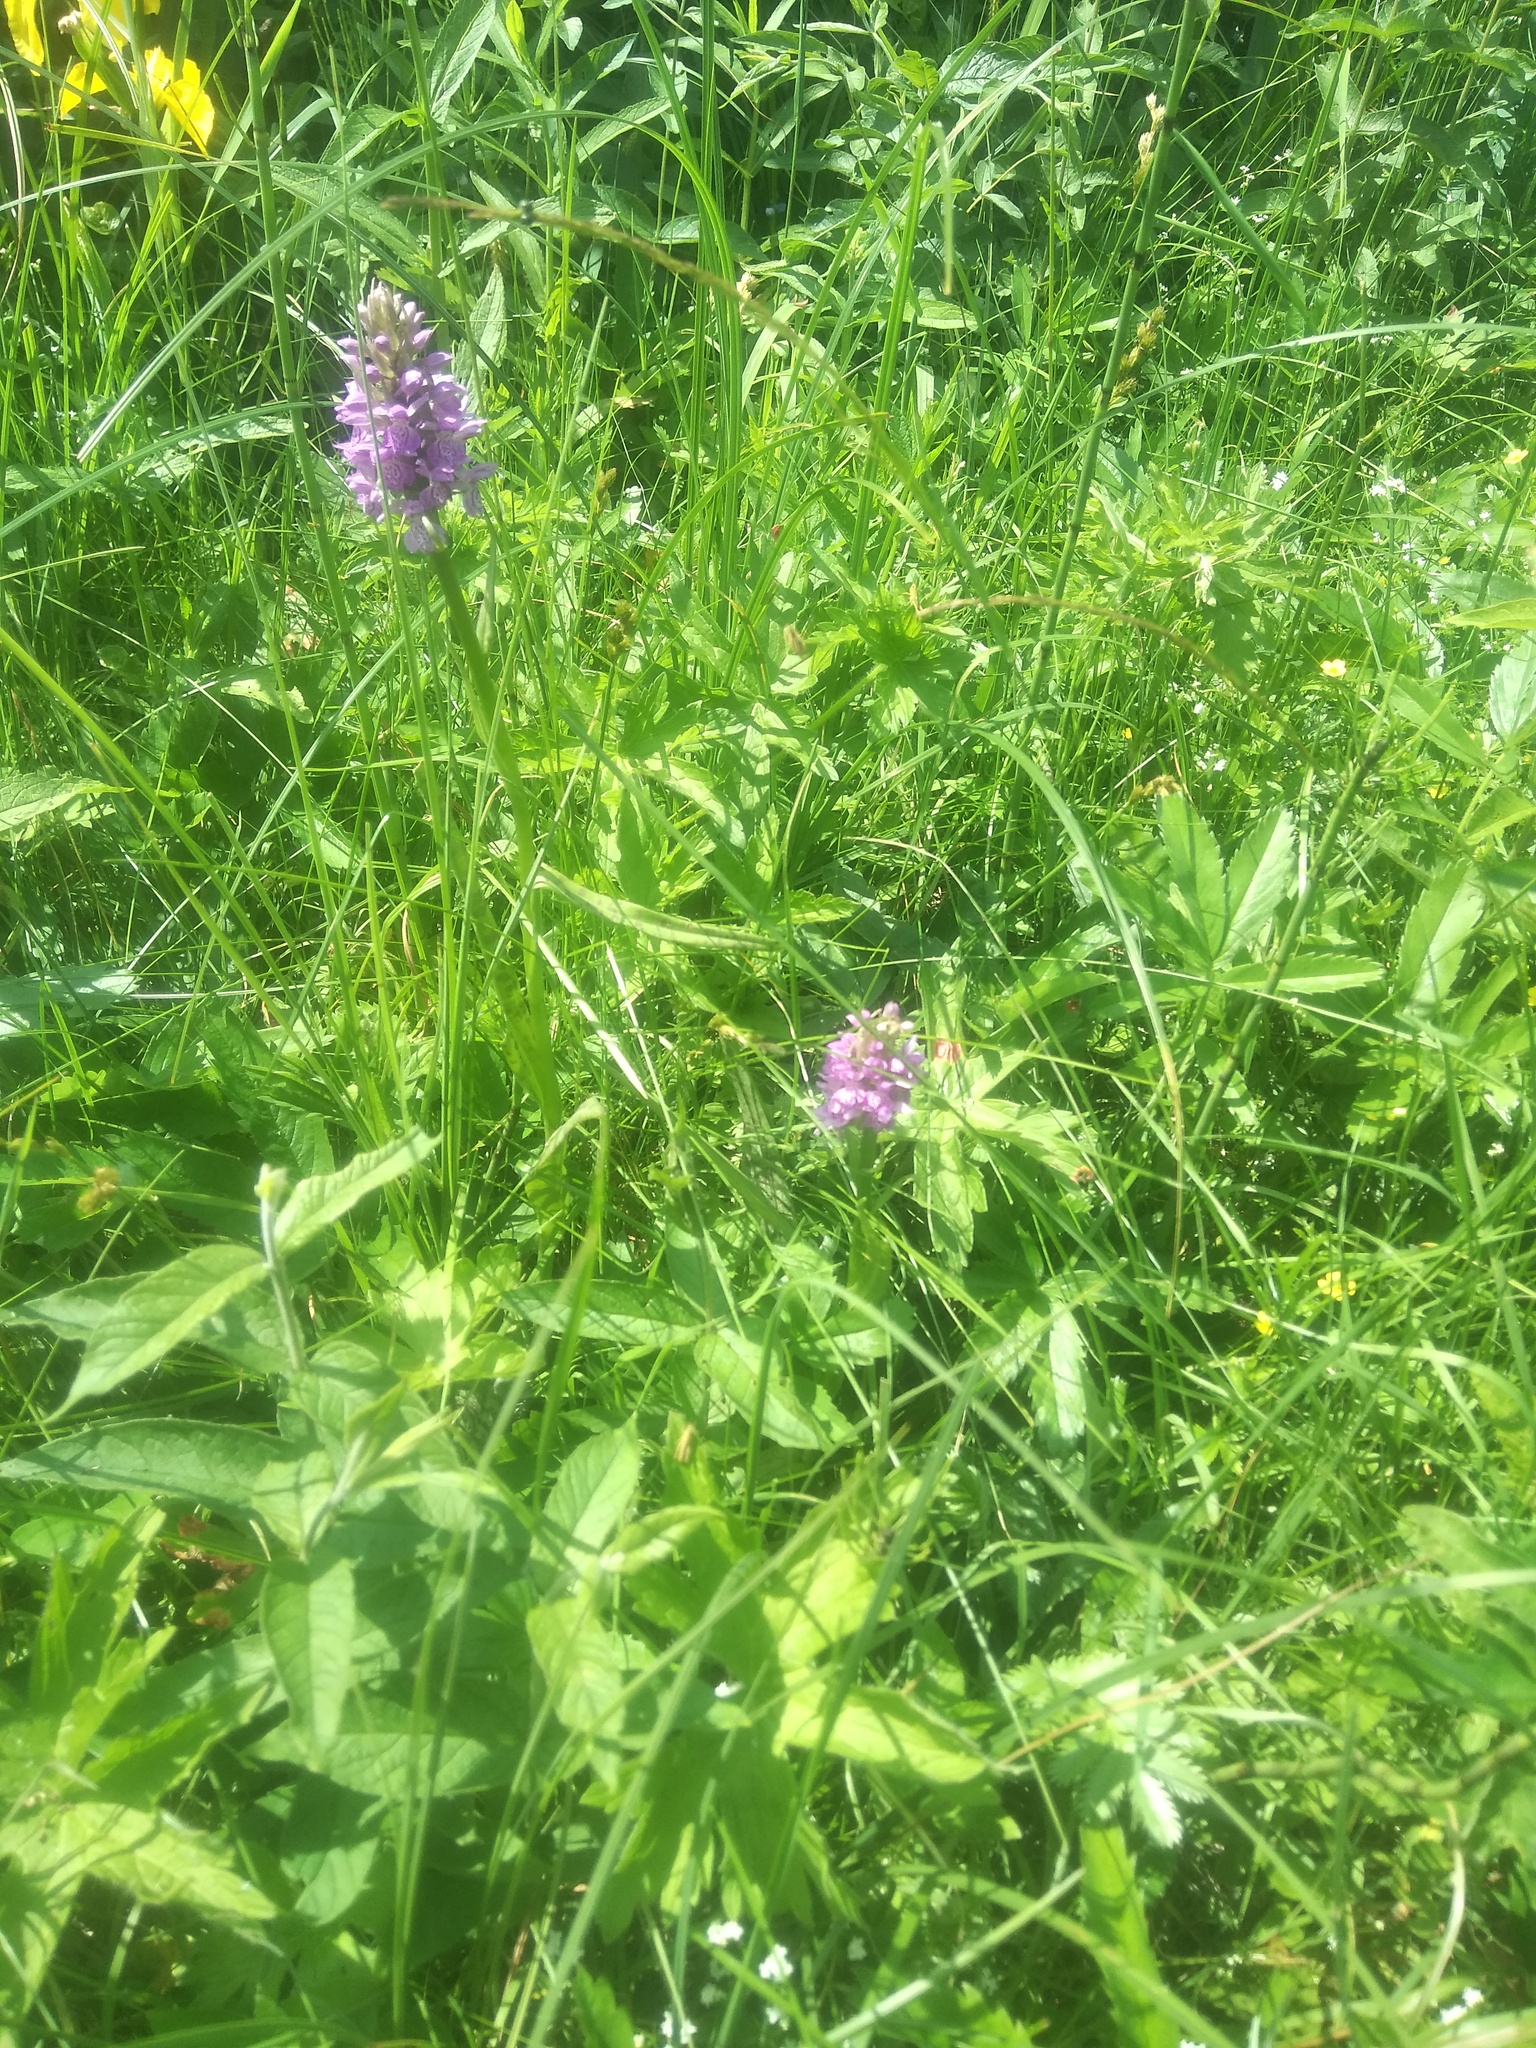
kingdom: Plantae
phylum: Tracheophyta
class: Liliopsida
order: Asparagales
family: Orchidaceae
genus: Dactylorhiza
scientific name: Dactylorhiza majalis
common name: Marsh orchid
